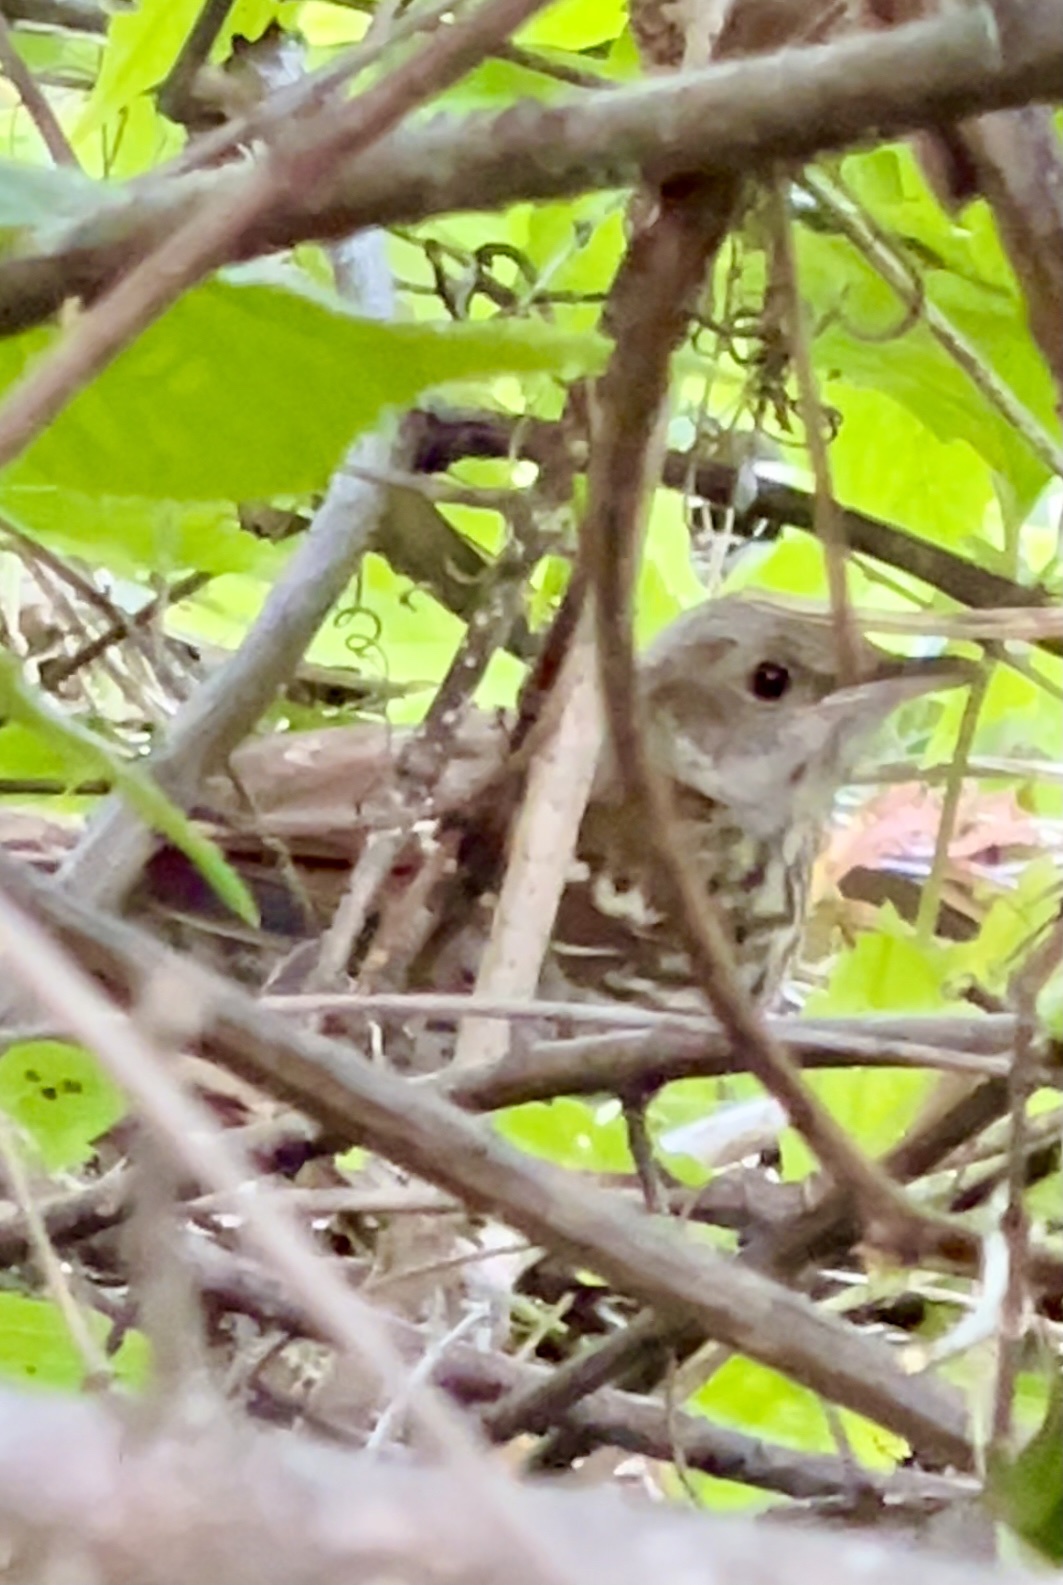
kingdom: Animalia
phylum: Chordata
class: Aves
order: Passeriformes
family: Mimidae
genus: Toxostoma
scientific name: Toxostoma rufum
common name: Brown thrasher
